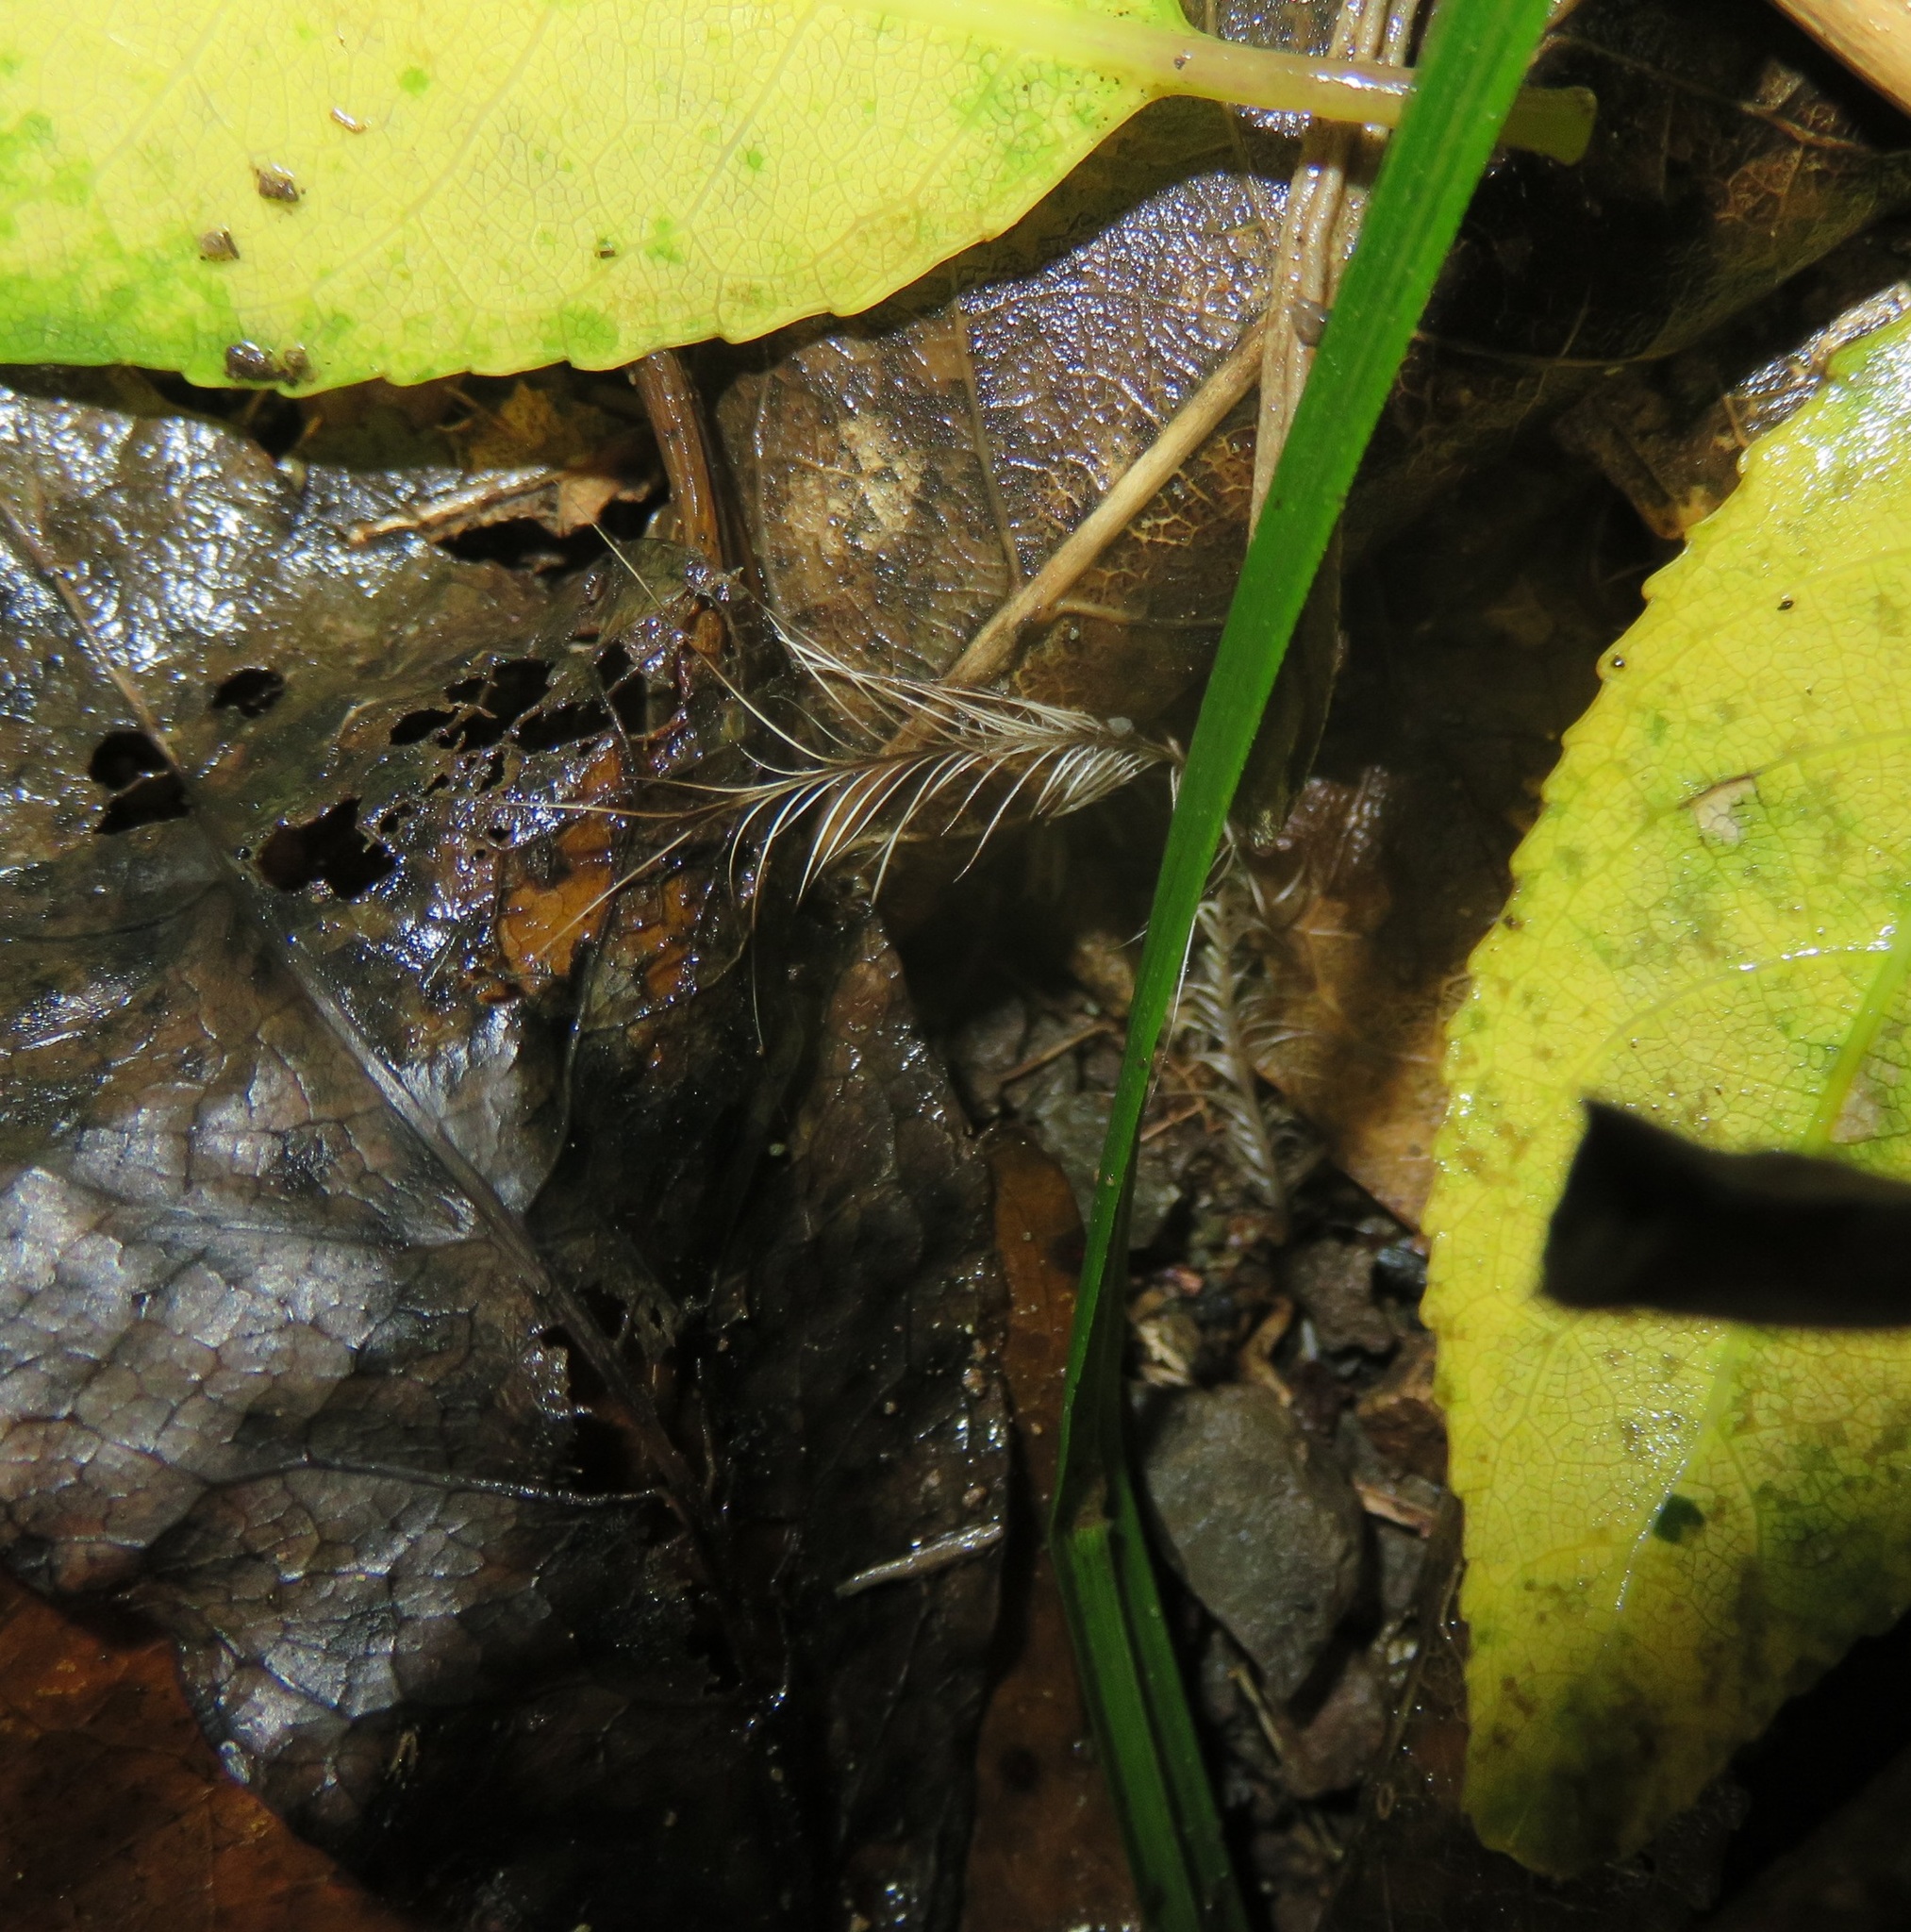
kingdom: Animalia
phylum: Chordata
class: Aves
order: Apterygiformes
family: Apterygidae
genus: Apteryx
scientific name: Apteryx owenii
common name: Little spotted kiwi
